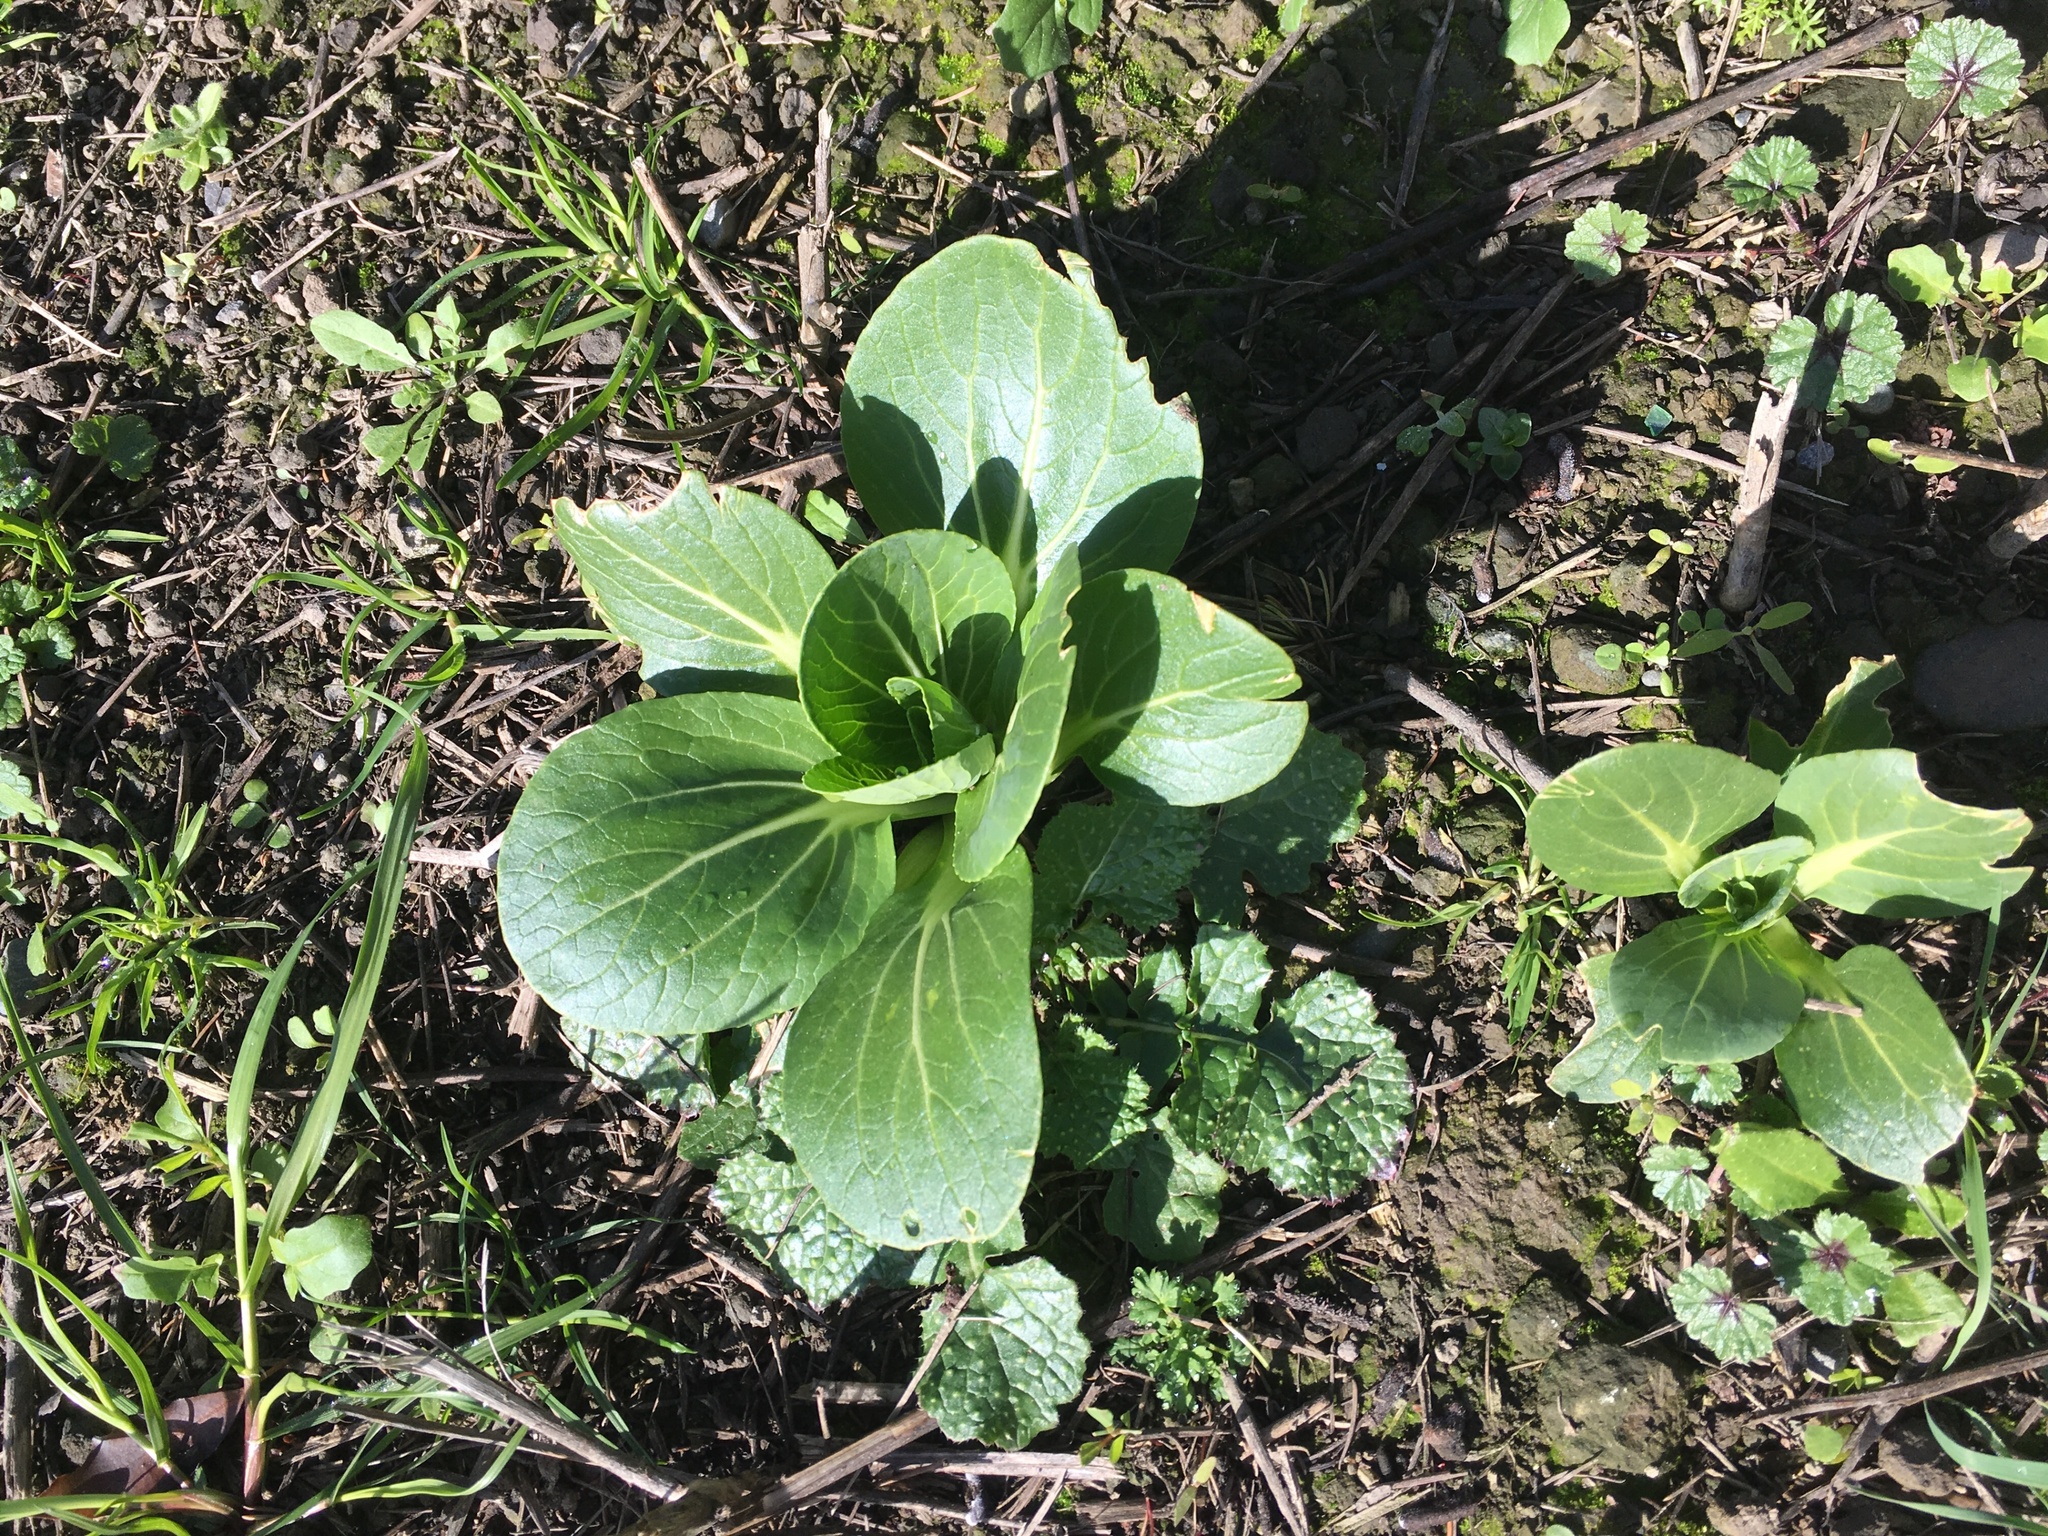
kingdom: Plantae
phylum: Tracheophyta
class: Magnoliopsida
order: Brassicales
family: Brassicaceae
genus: Brassica
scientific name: Brassica rapa
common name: Field mustard
